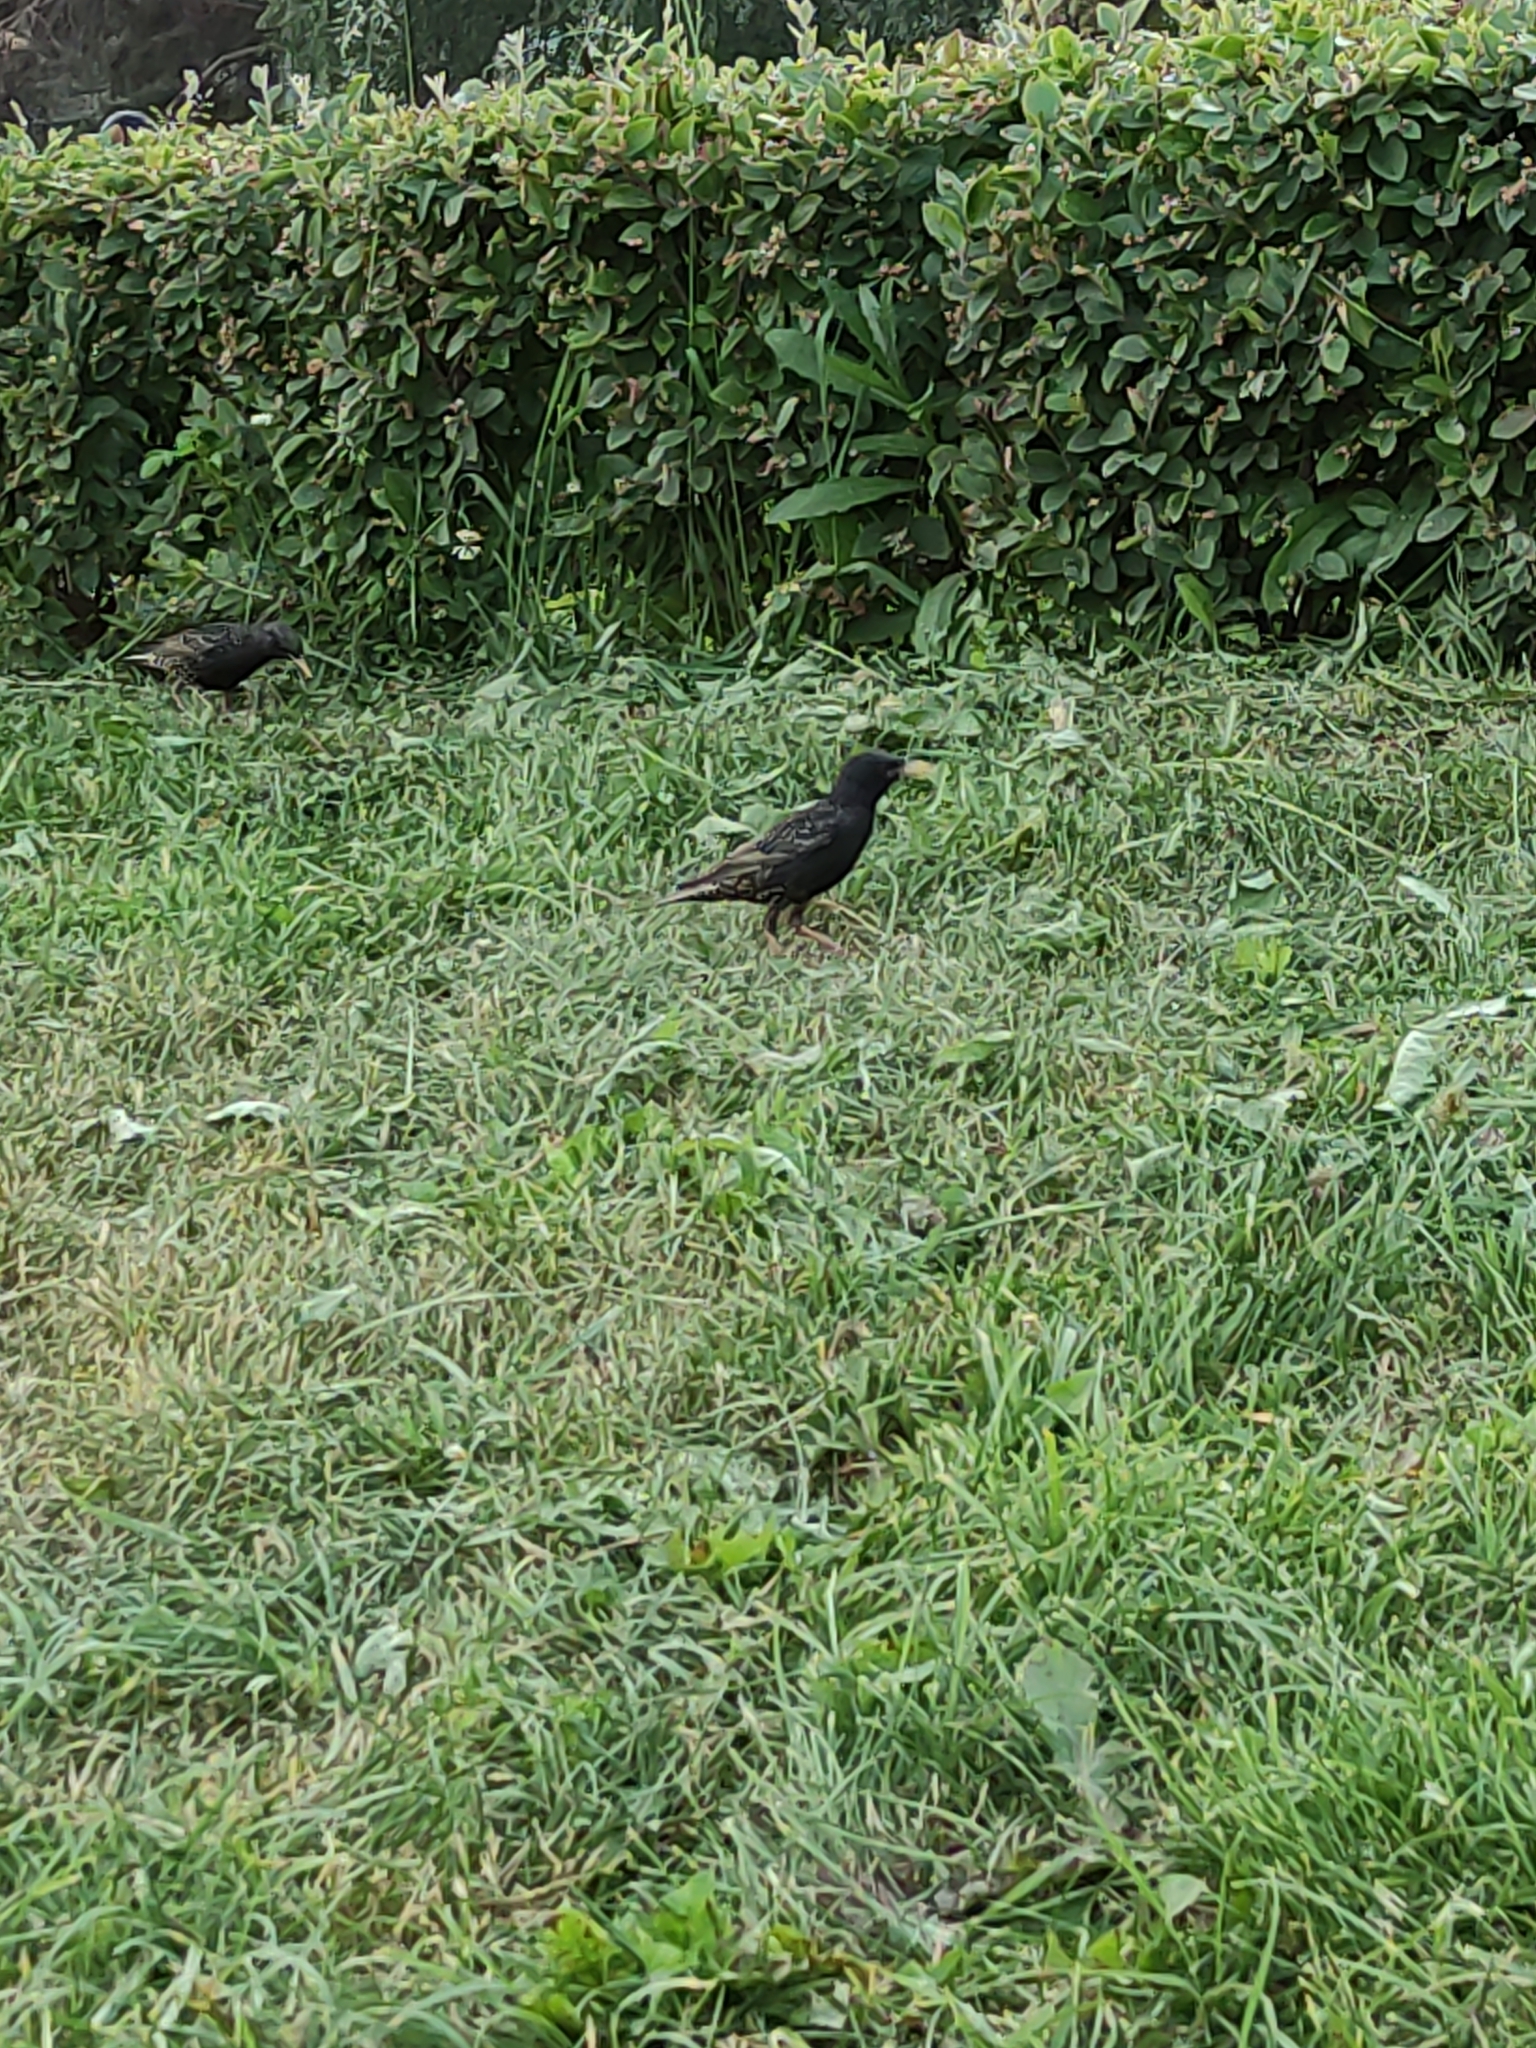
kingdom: Animalia
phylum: Chordata
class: Aves
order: Passeriformes
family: Sturnidae
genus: Sturnus
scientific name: Sturnus vulgaris
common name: Common starling
